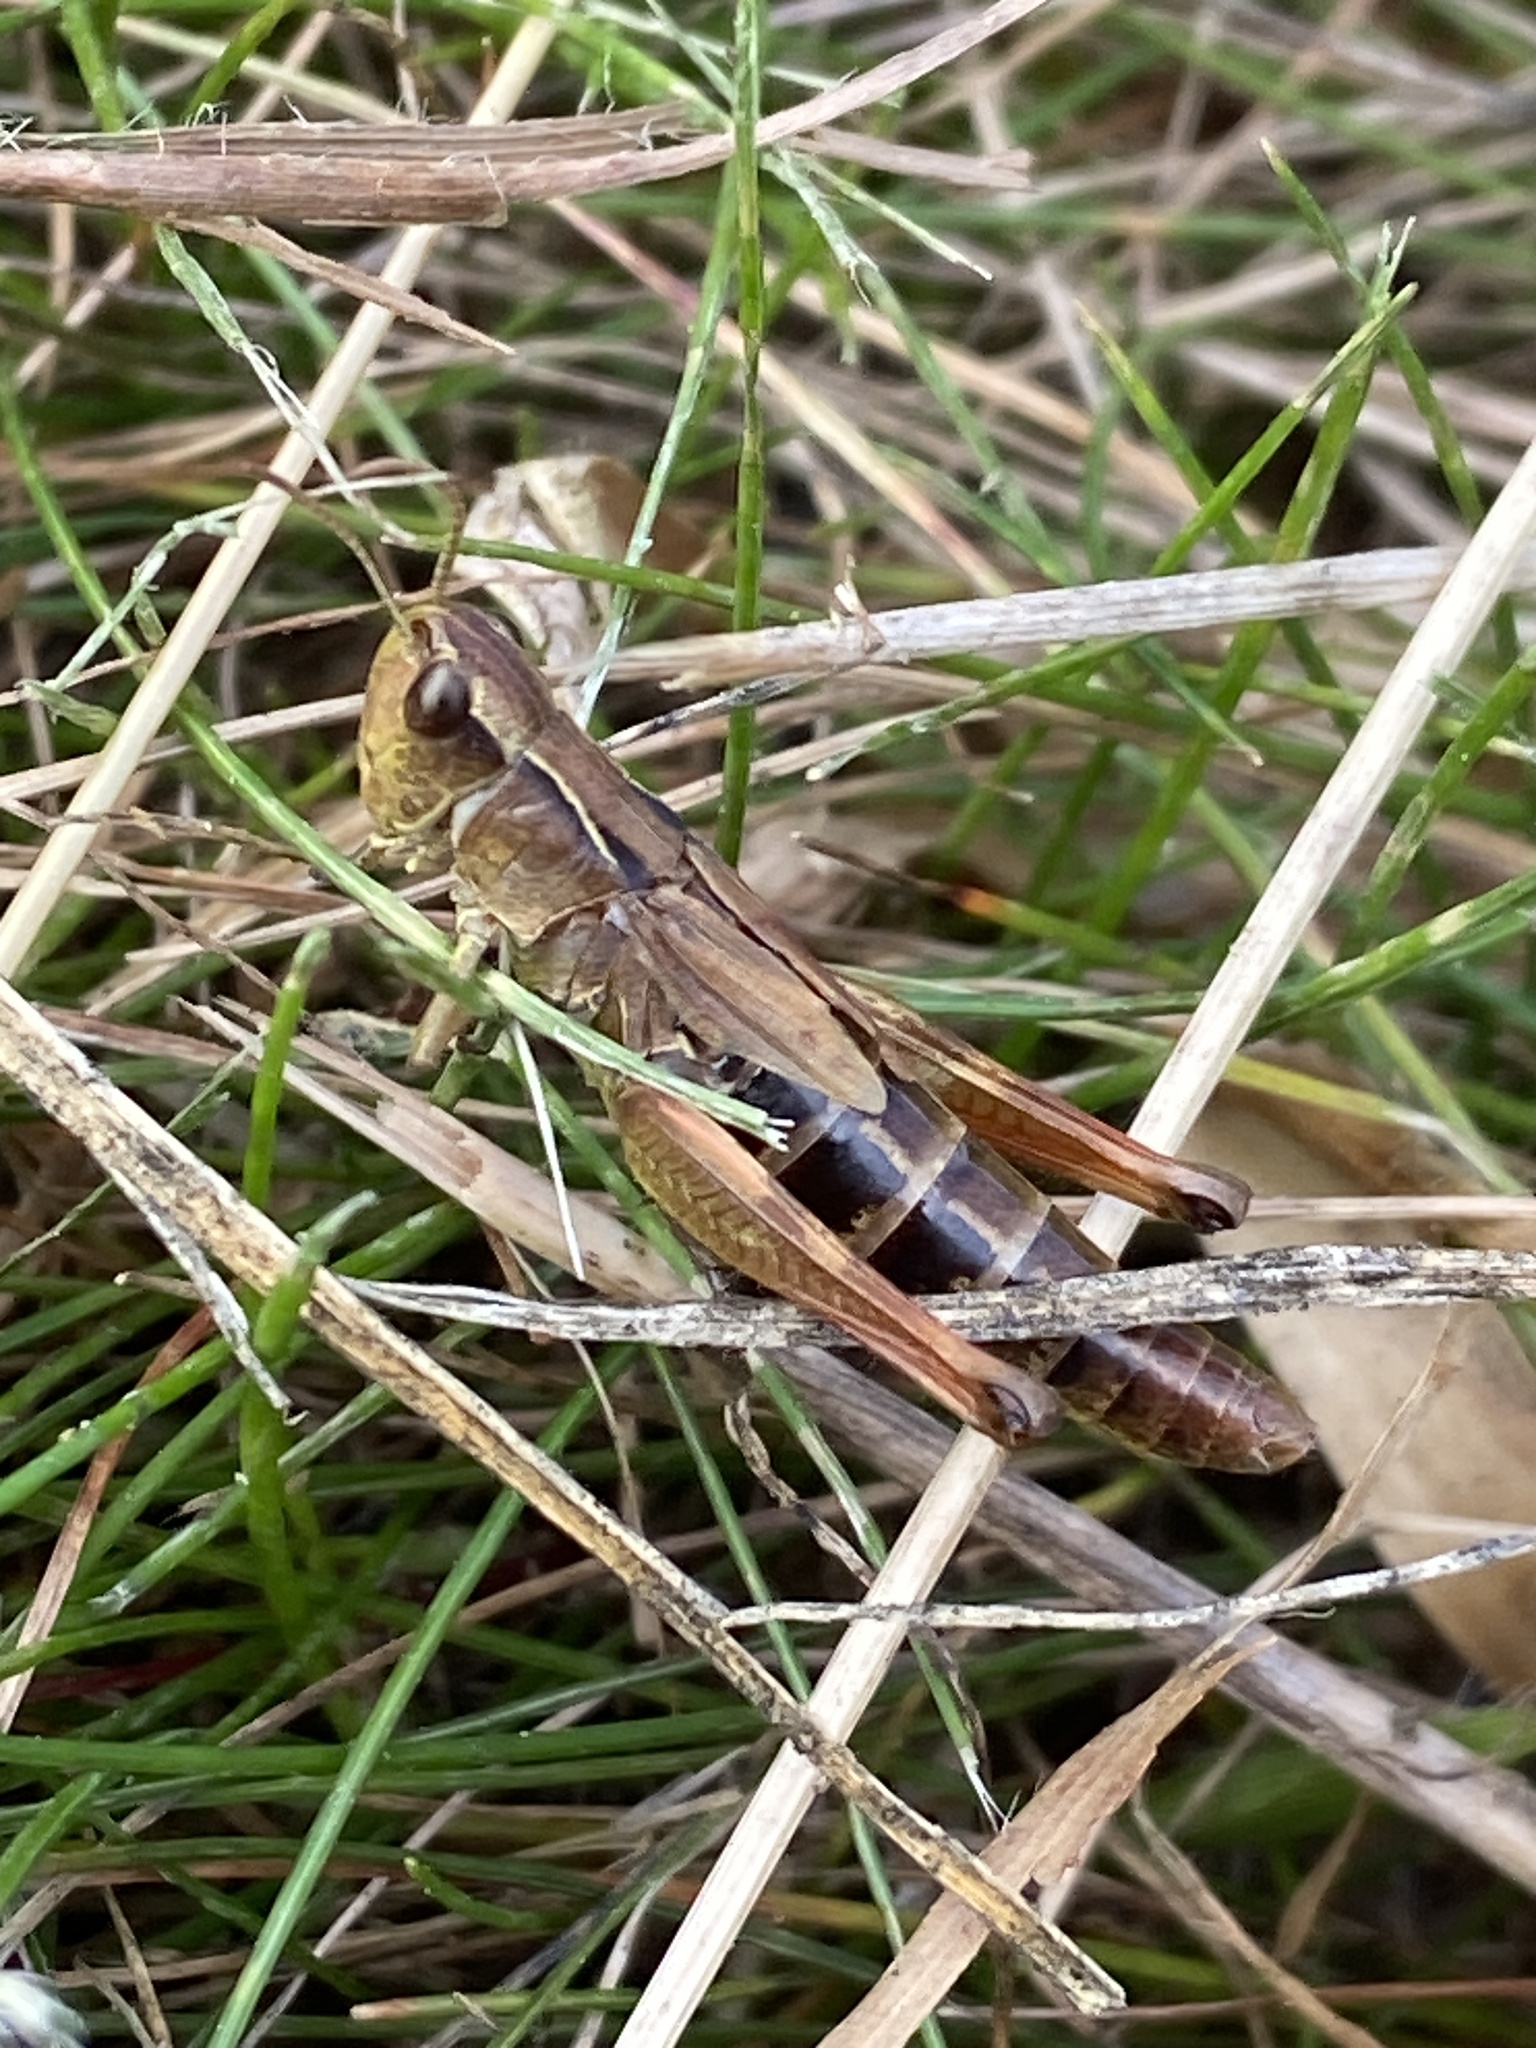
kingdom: Animalia
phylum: Arthropoda
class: Insecta
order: Orthoptera
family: Acrididae
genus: Pseudochorthippus
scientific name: Pseudochorthippus parallelus
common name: Meadow grasshopper
